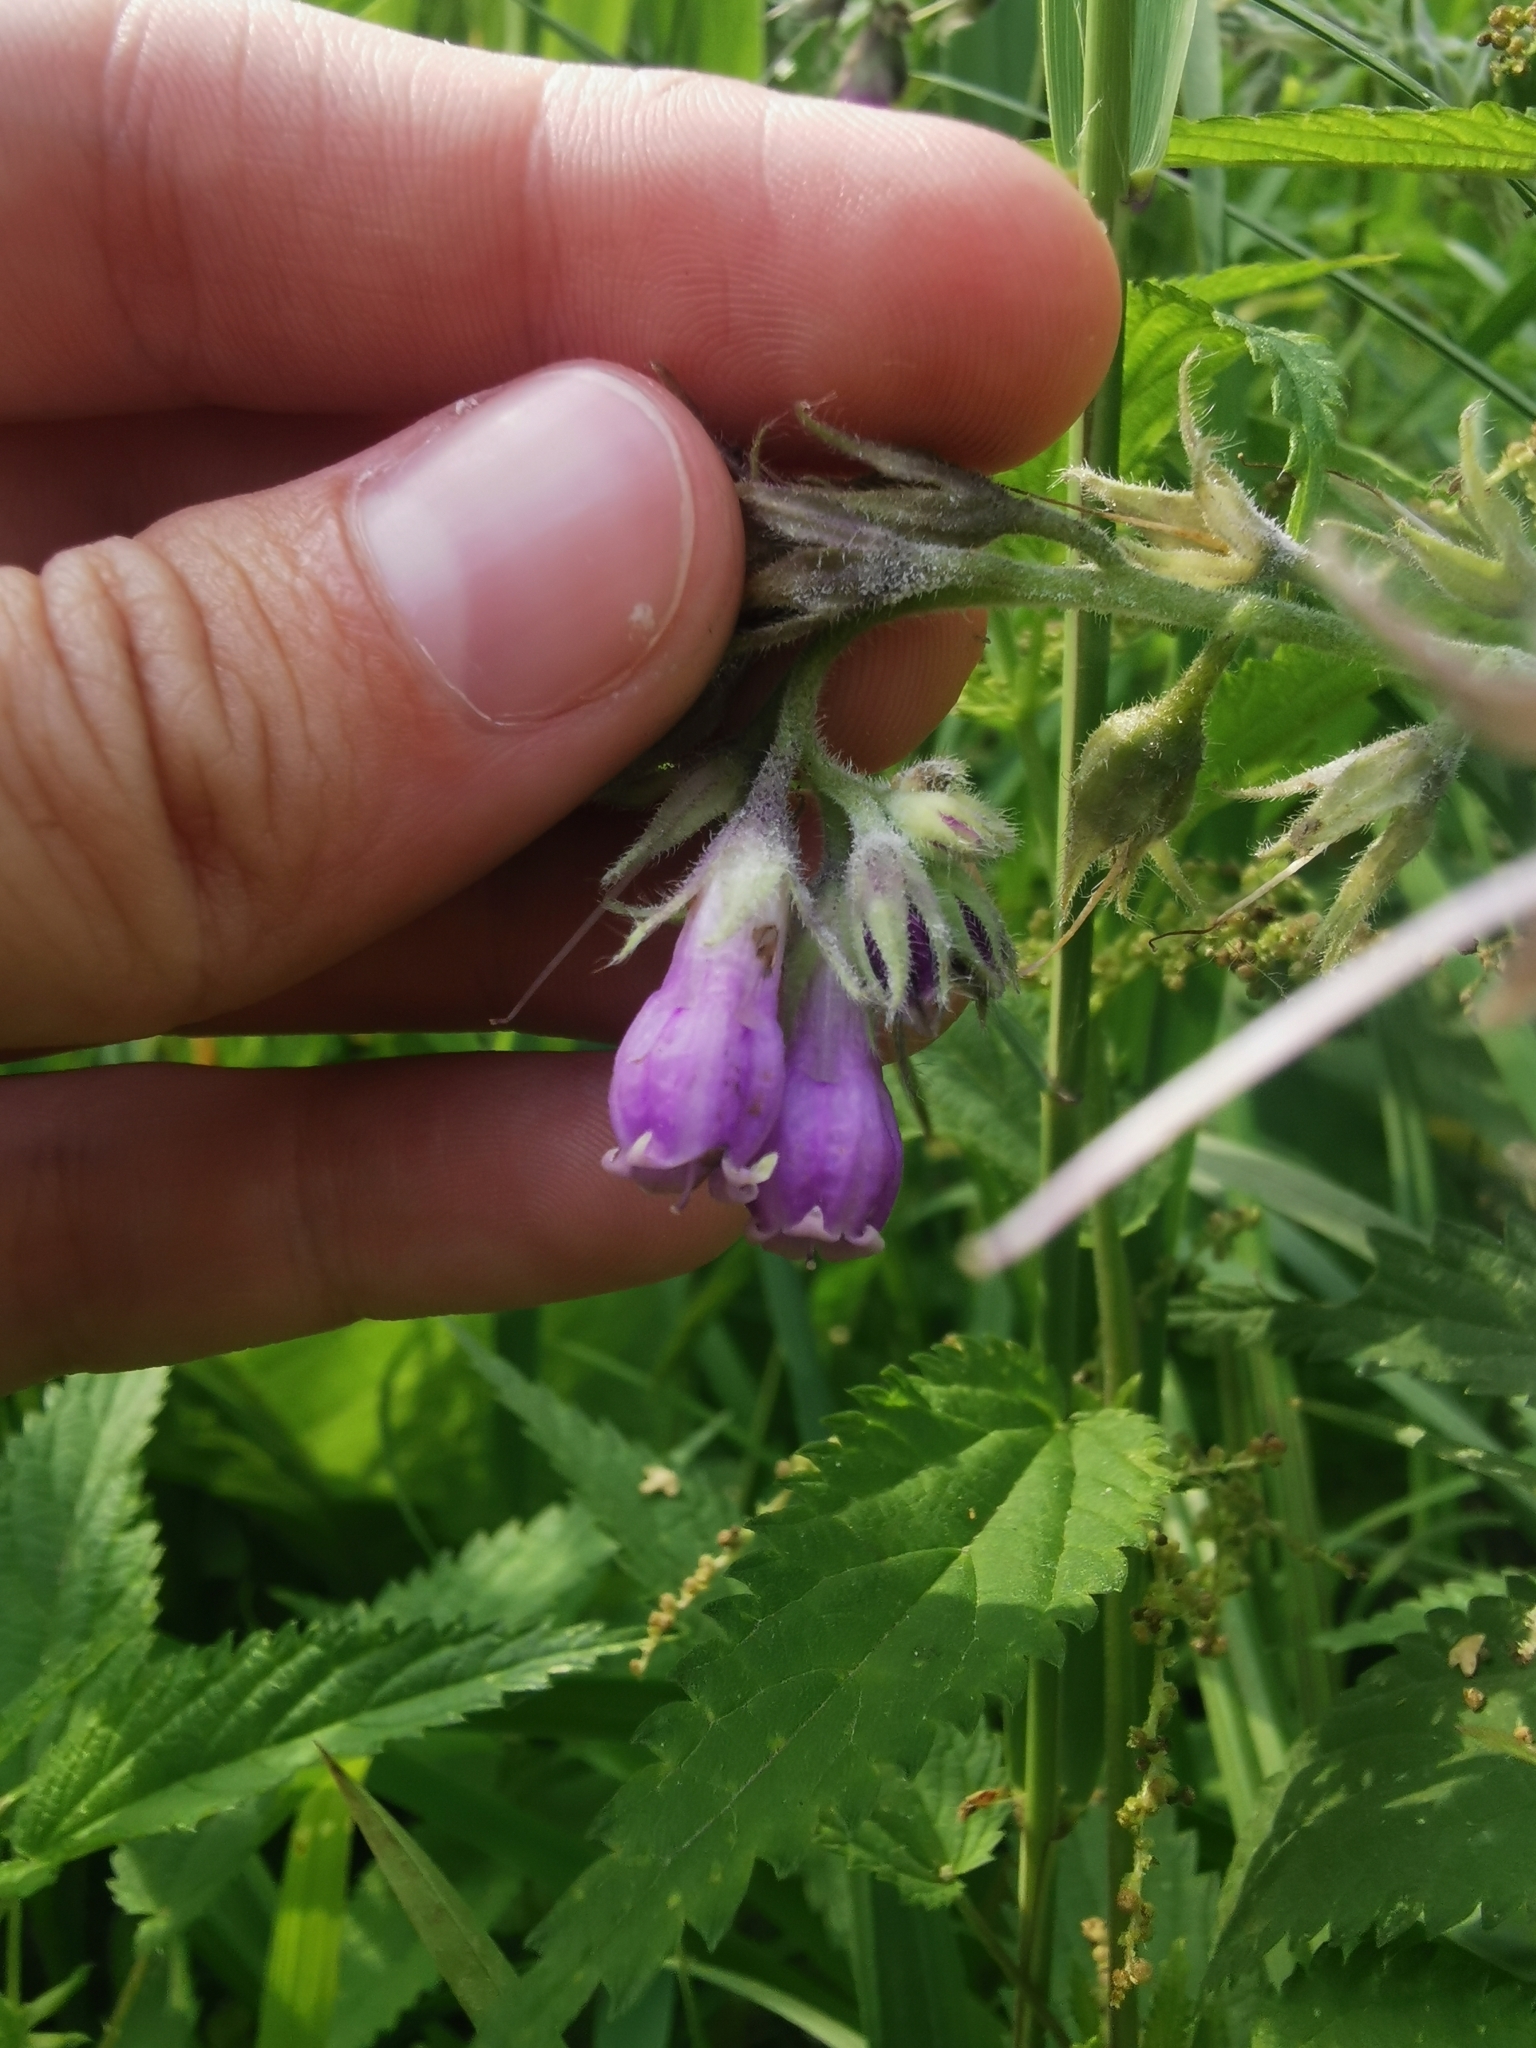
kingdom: Plantae
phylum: Tracheophyta
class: Magnoliopsida
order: Boraginales
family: Boraginaceae
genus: Symphytum
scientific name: Symphytum officinale
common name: Common comfrey
